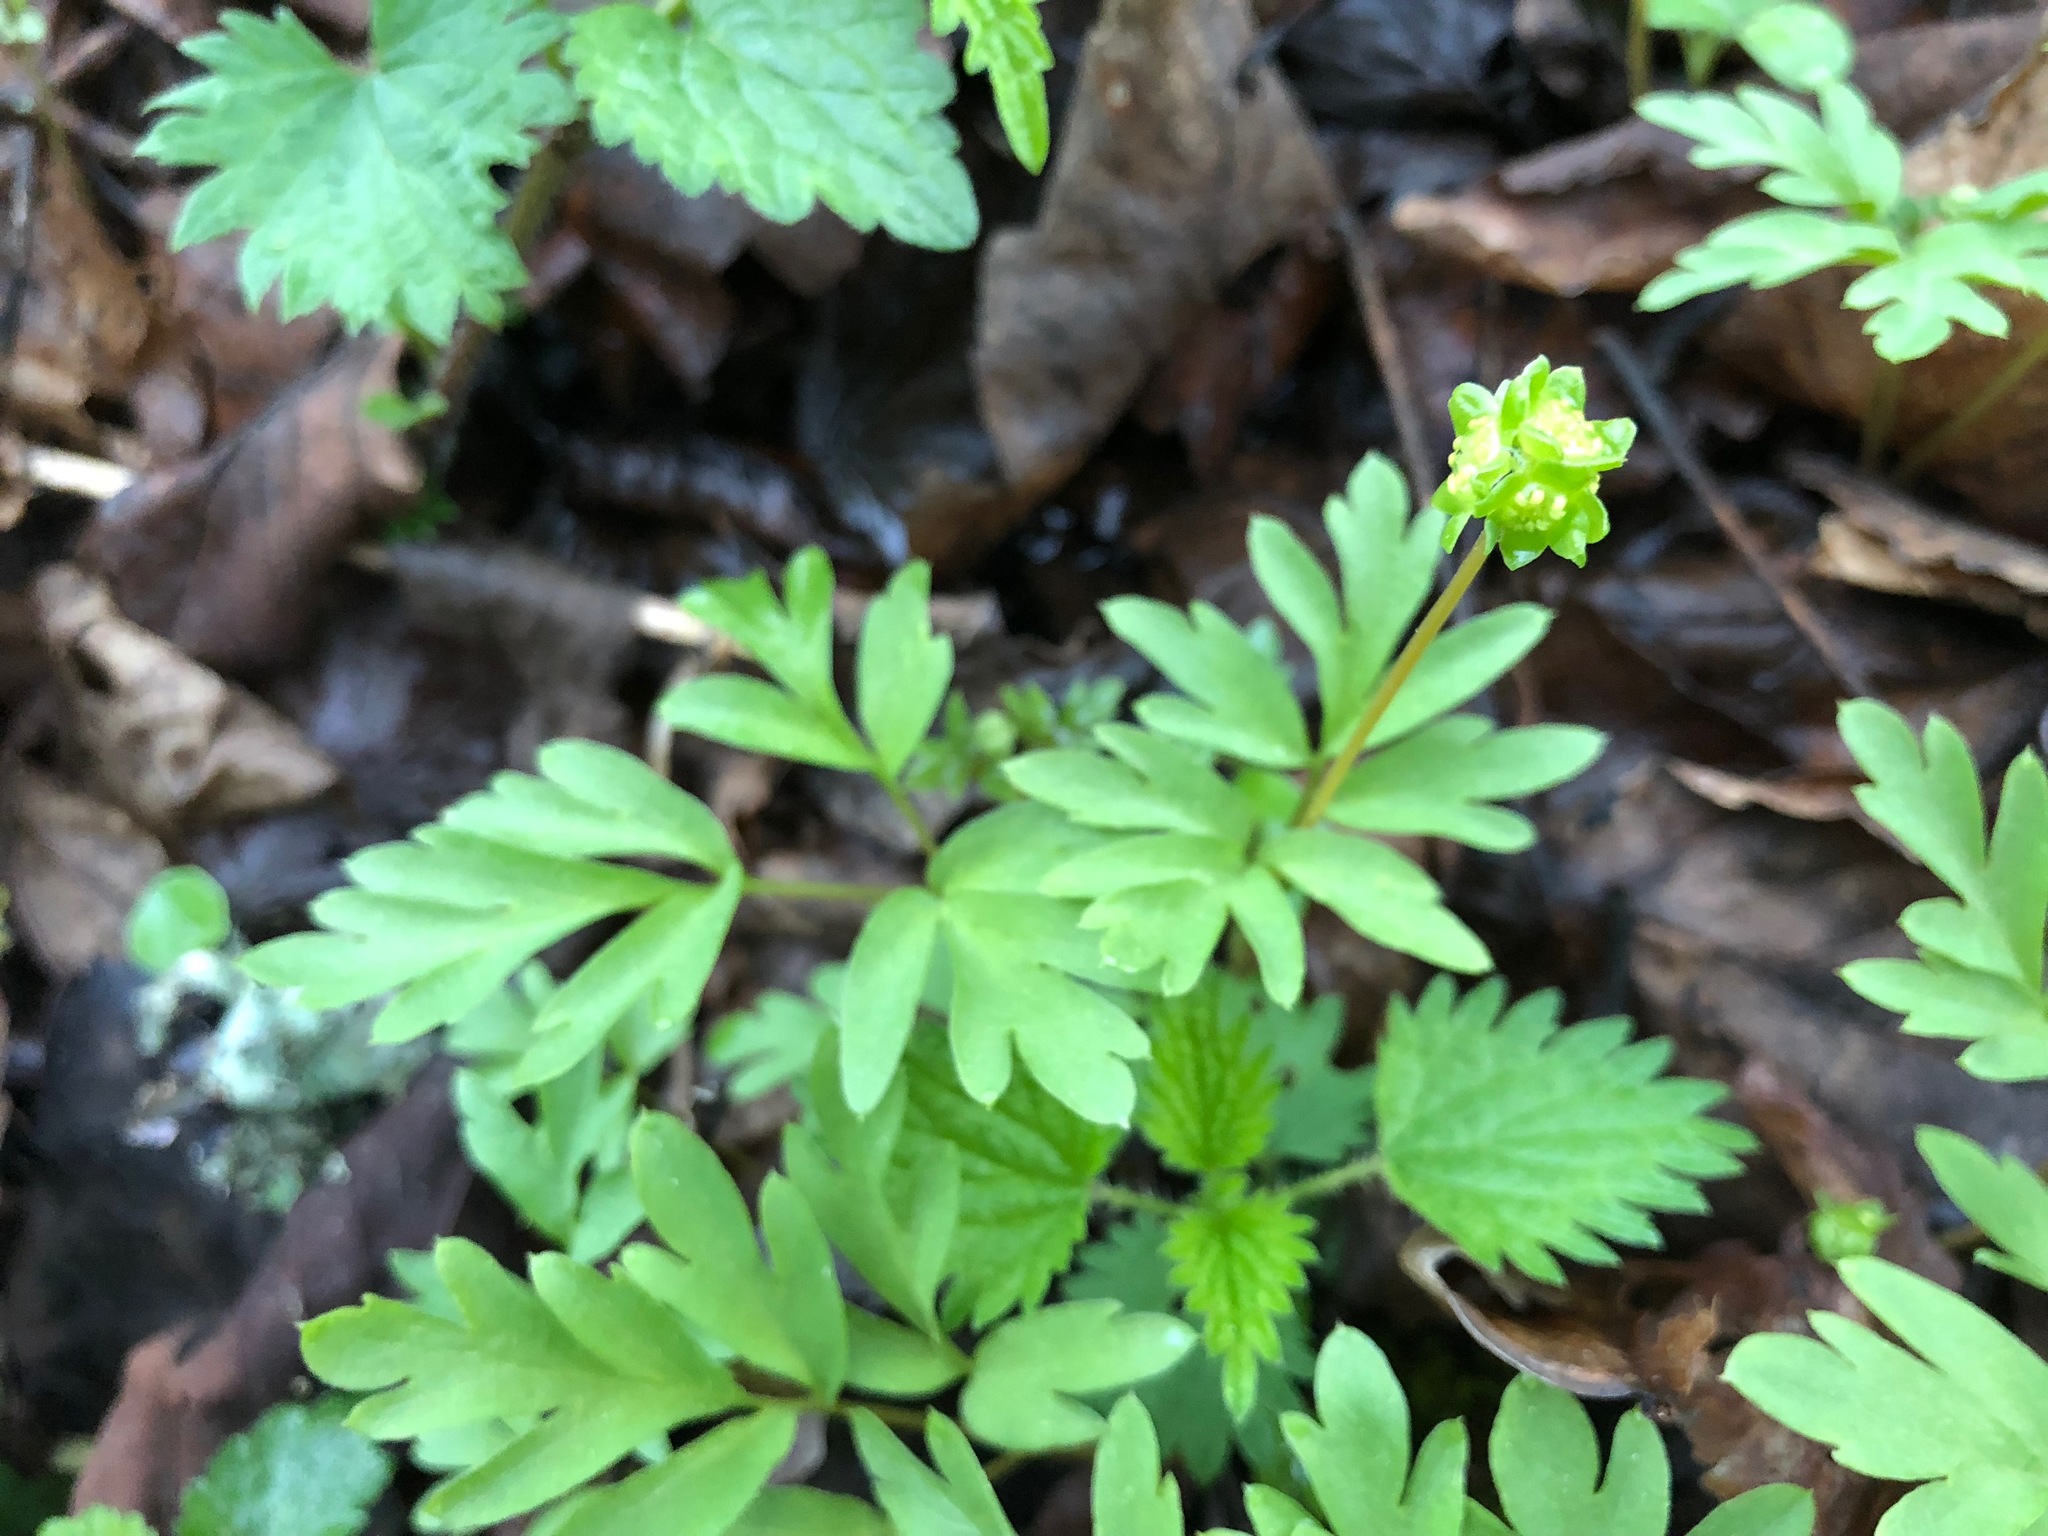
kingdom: Plantae
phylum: Tracheophyta
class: Magnoliopsida
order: Dipsacales
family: Viburnaceae
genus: Adoxa
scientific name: Adoxa moschatellina
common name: Moschatel
